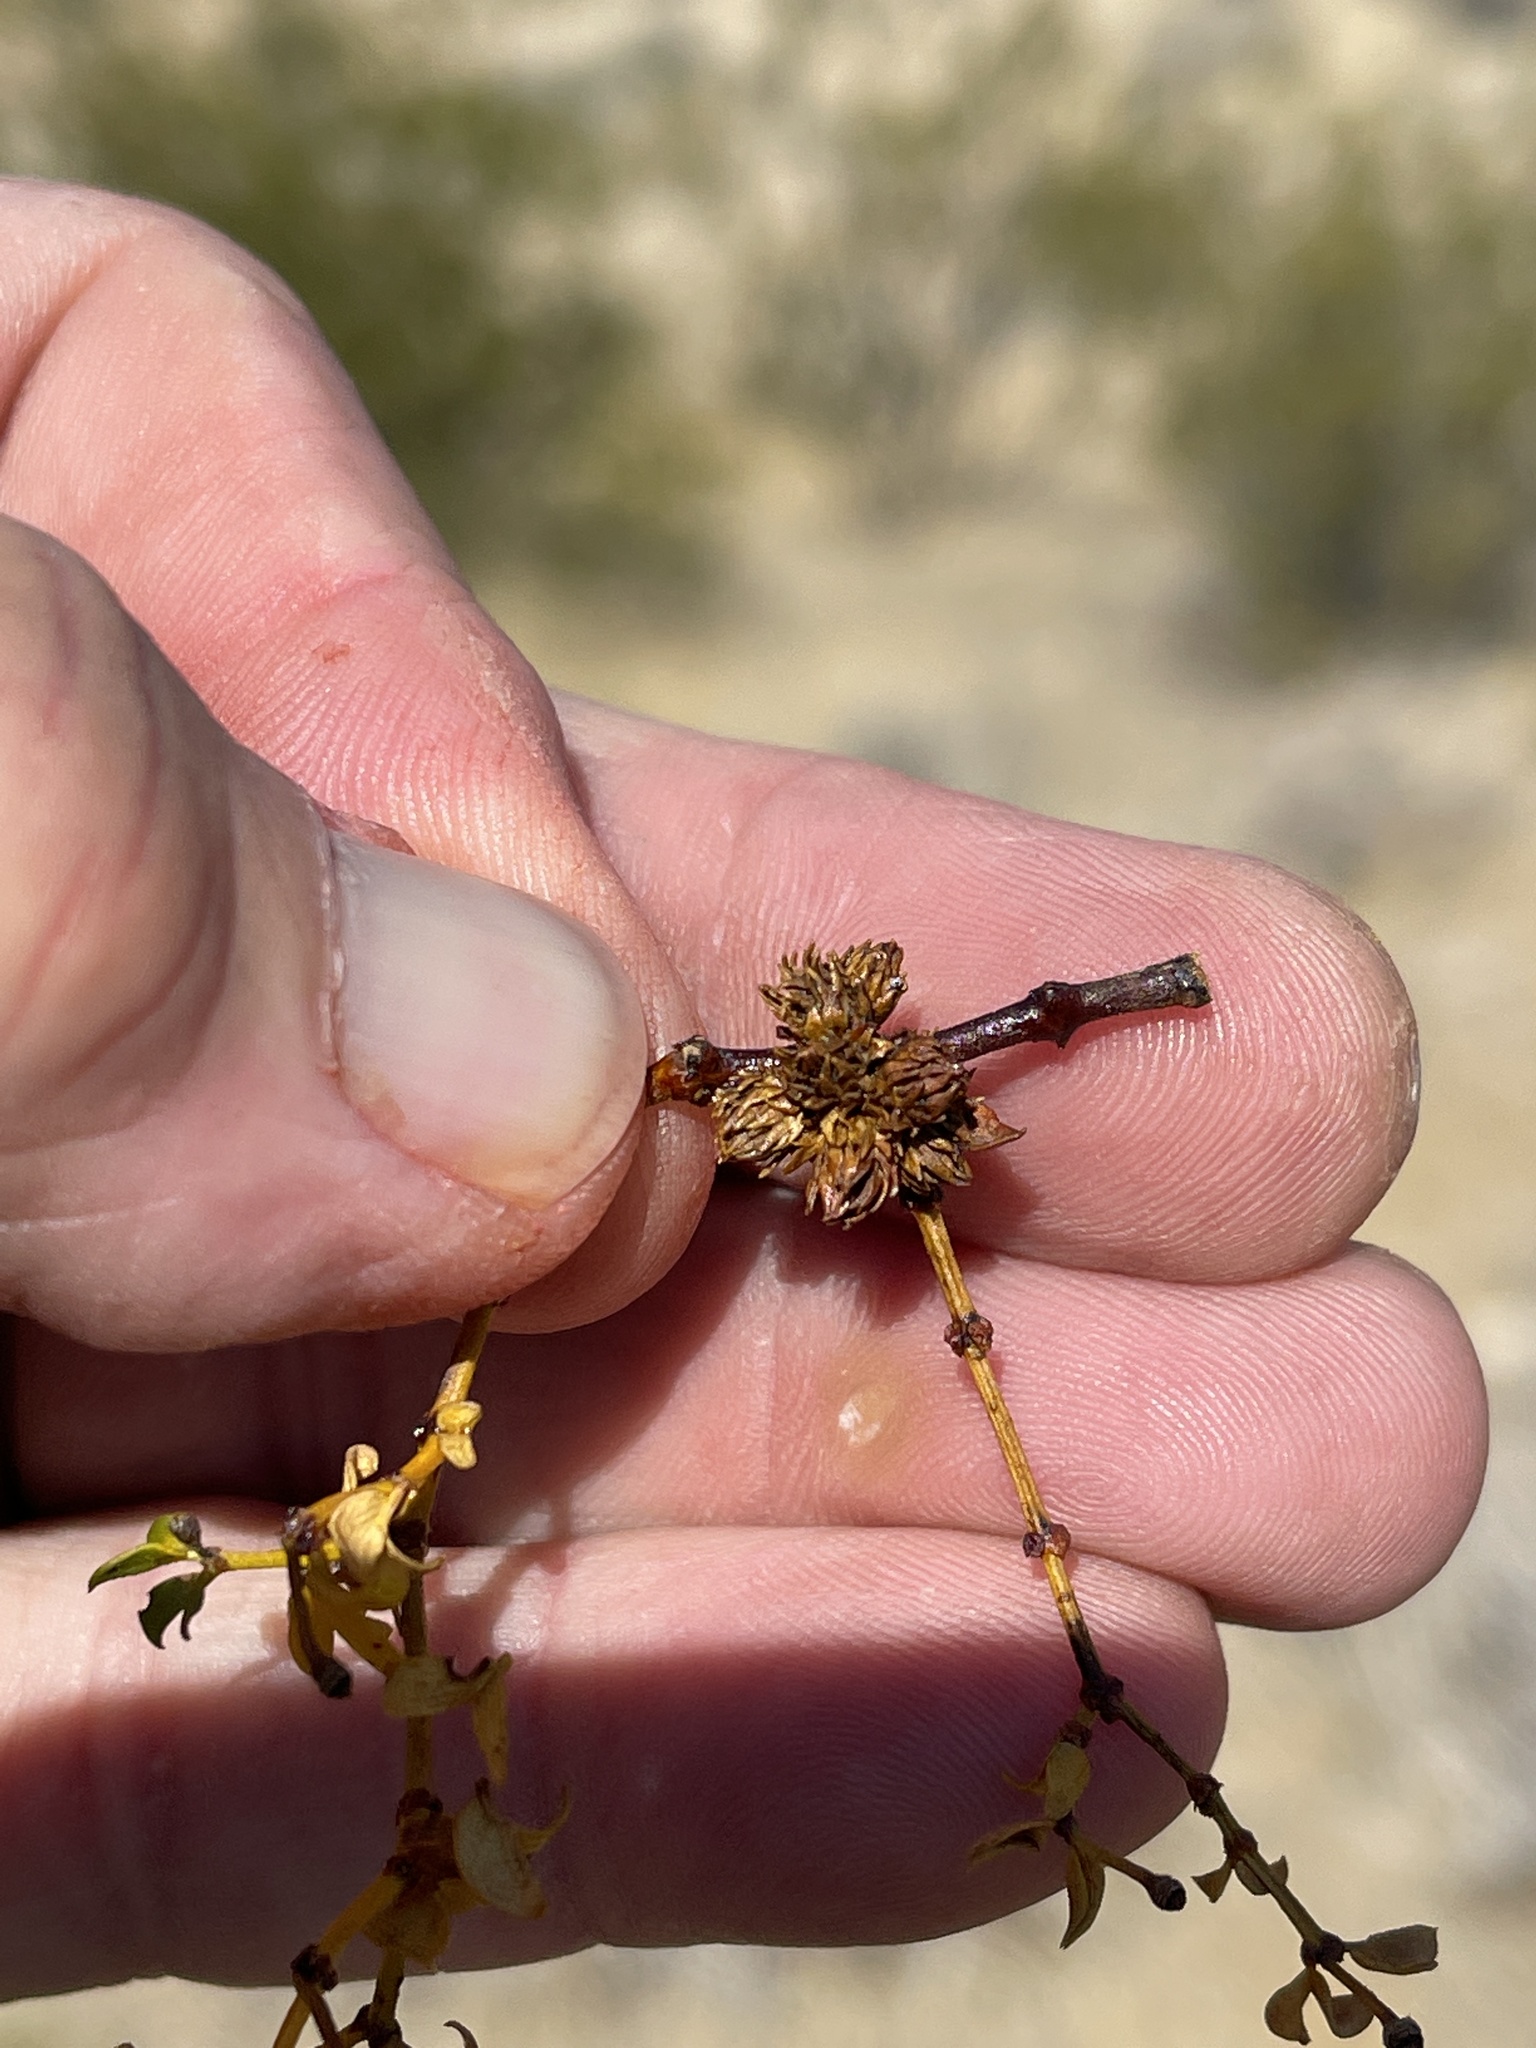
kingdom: Animalia
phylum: Arthropoda
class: Insecta
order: Diptera
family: Cecidomyiidae
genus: Asphondylia
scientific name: Asphondylia rosetta
